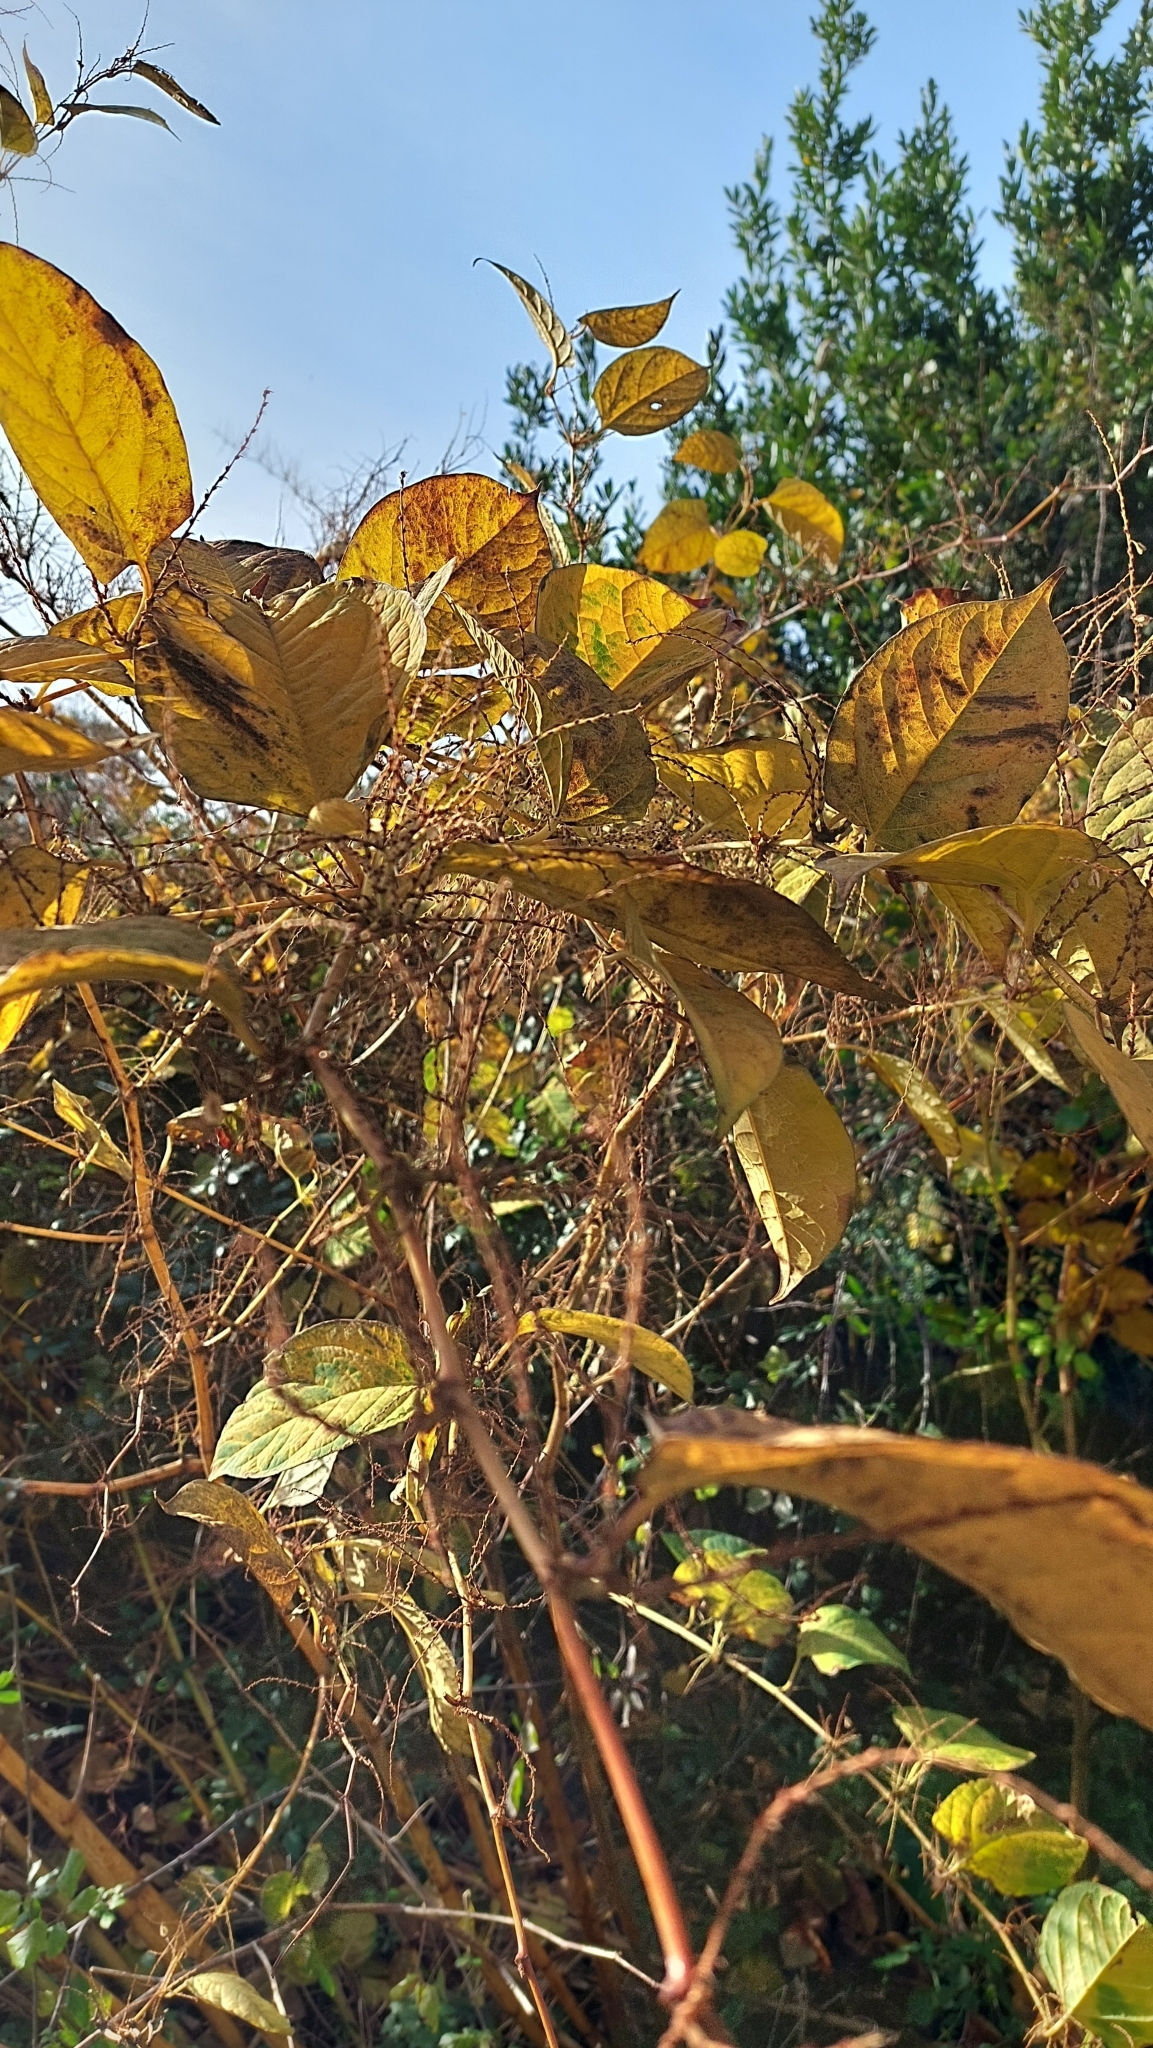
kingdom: Plantae
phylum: Tracheophyta
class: Magnoliopsida
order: Caryophyllales
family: Polygonaceae
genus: Reynoutria
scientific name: Reynoutria japonica
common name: Japanese knotweed
